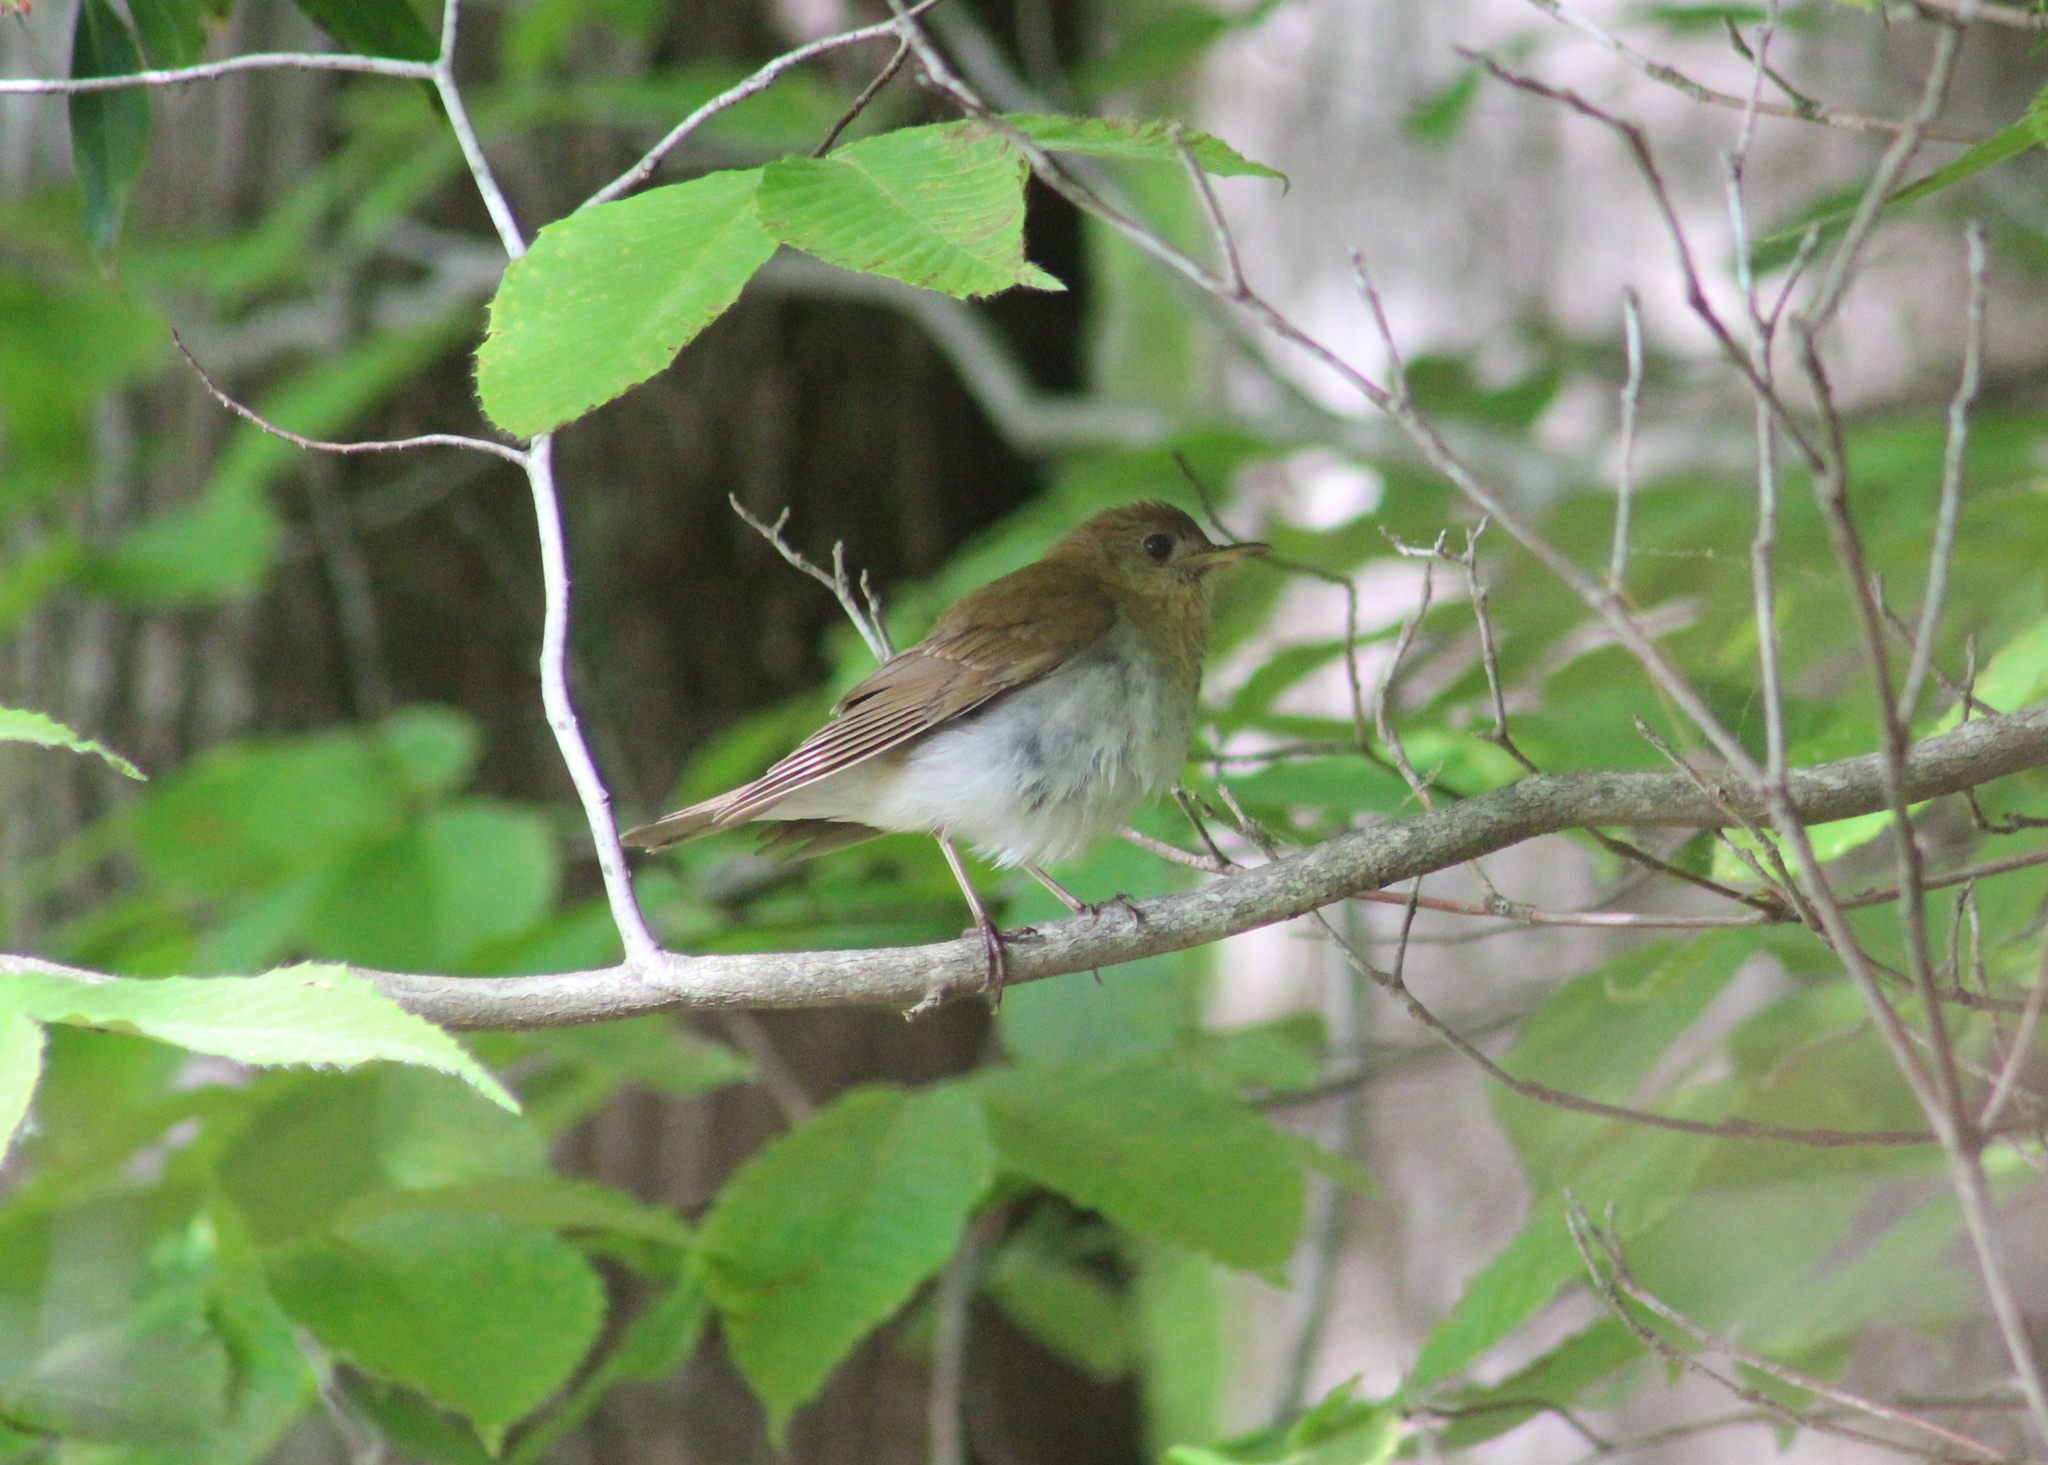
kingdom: Animalia
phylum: Chordata
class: Aves
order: Passeriformes
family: Turdidae
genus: Catharus
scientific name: Catharus fuscescens
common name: Veery
